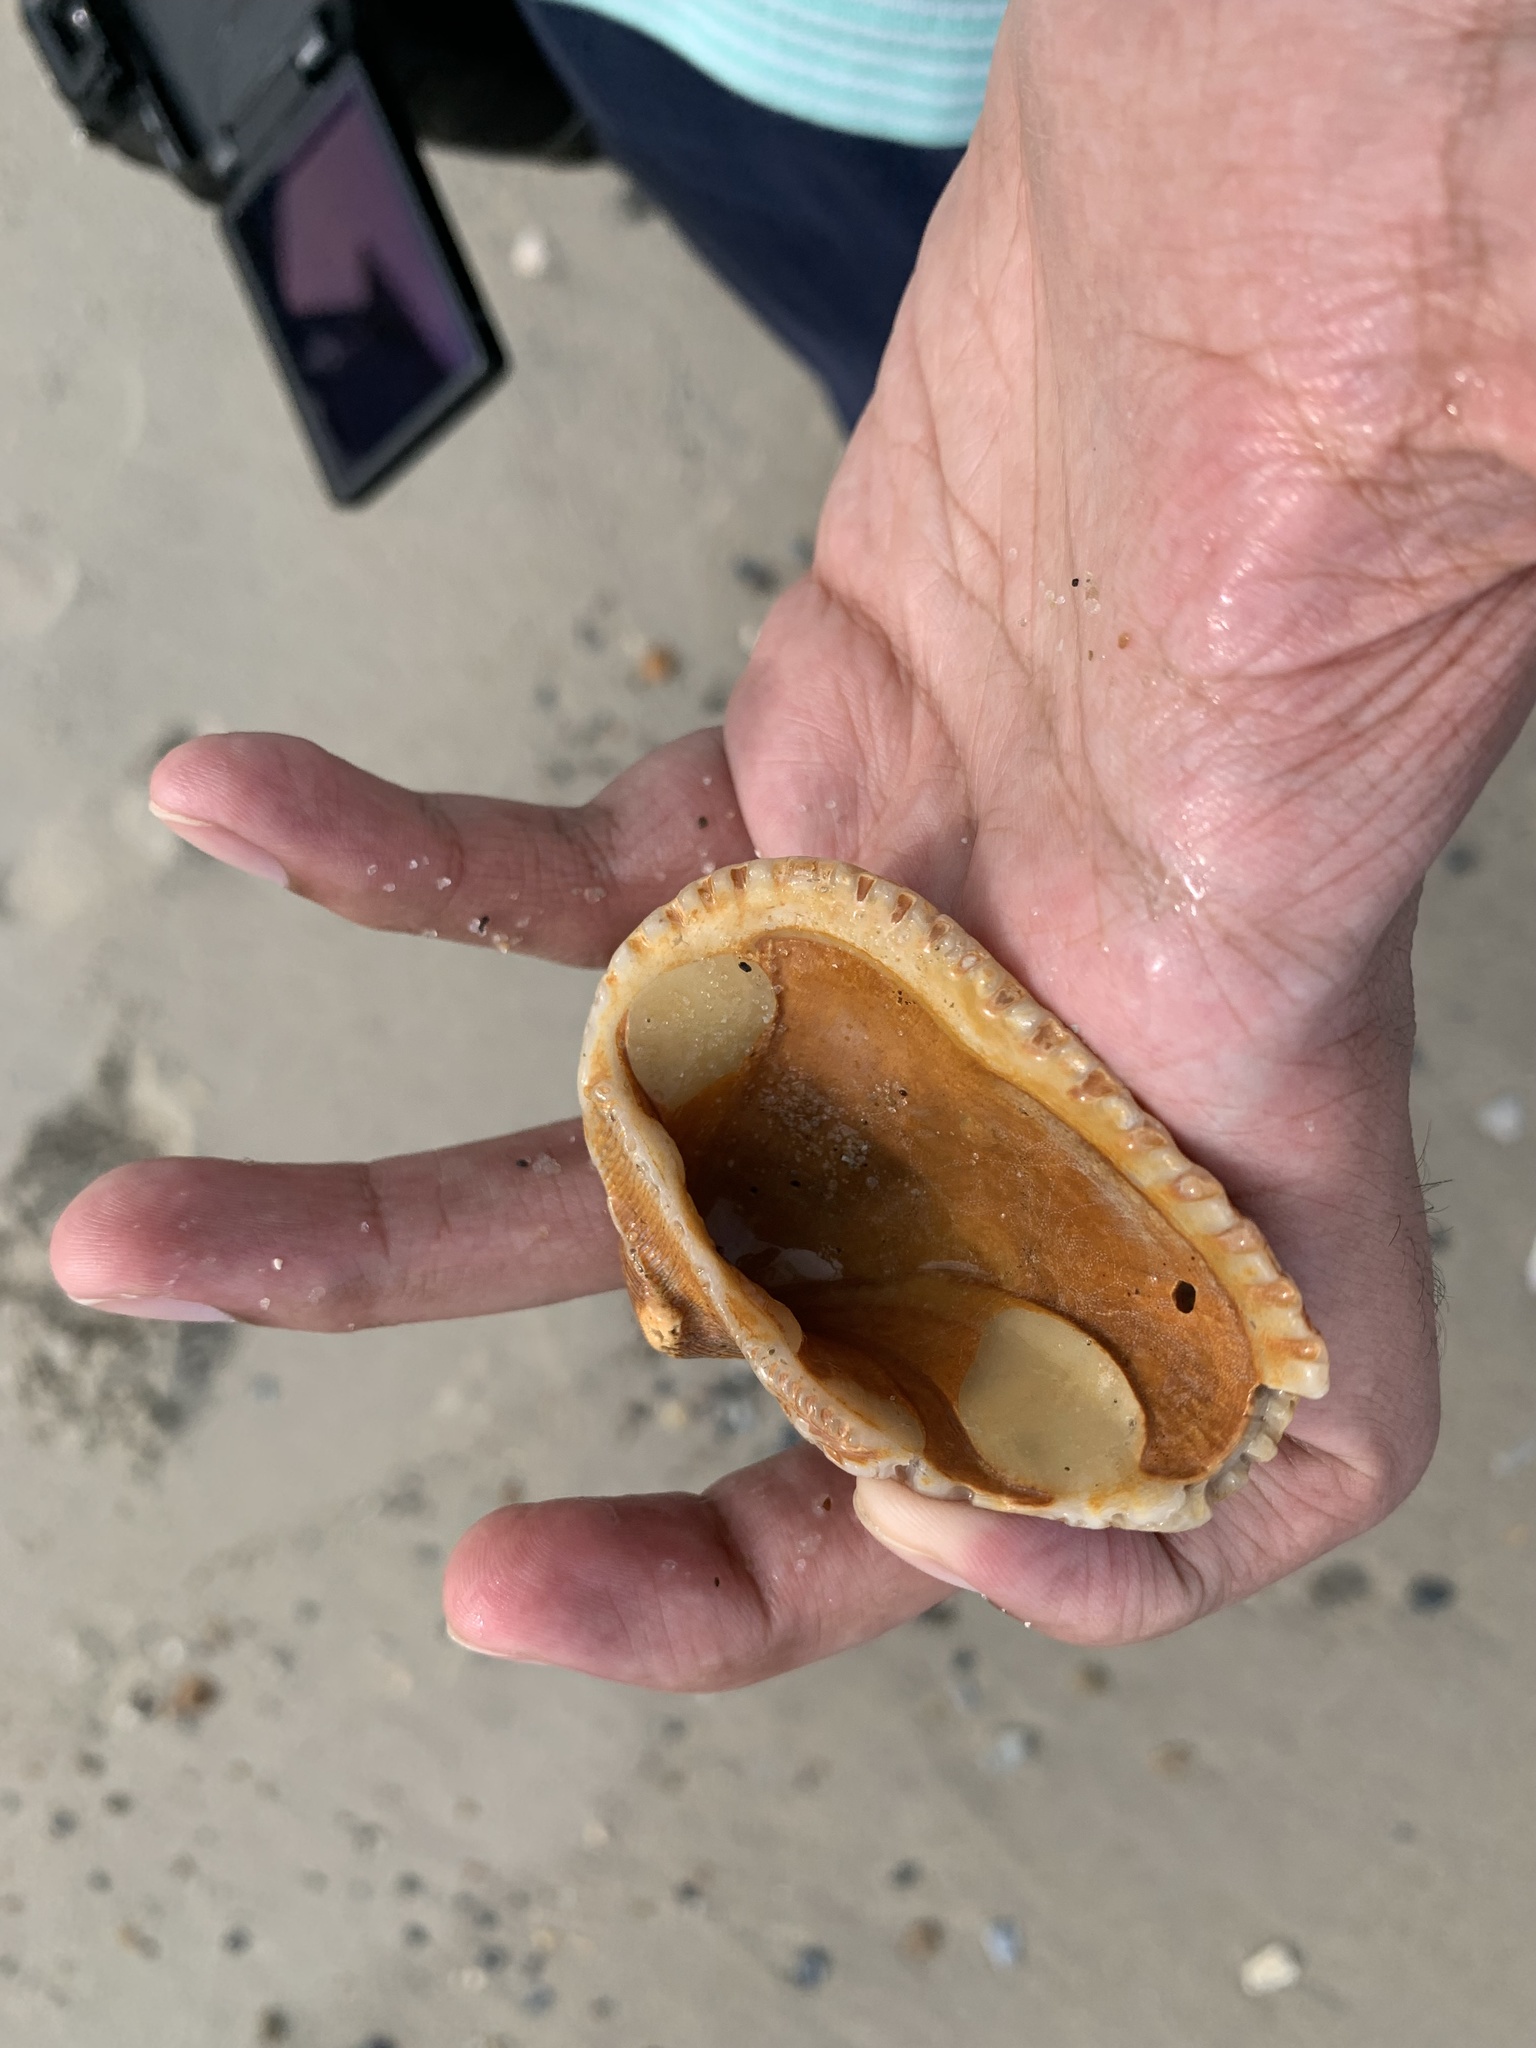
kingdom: Animalia
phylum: Mollusca
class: Bivalvia
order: Arcida
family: Noetiidae
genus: Noetia
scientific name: Noetia ponderosa
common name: Ponderous ark
